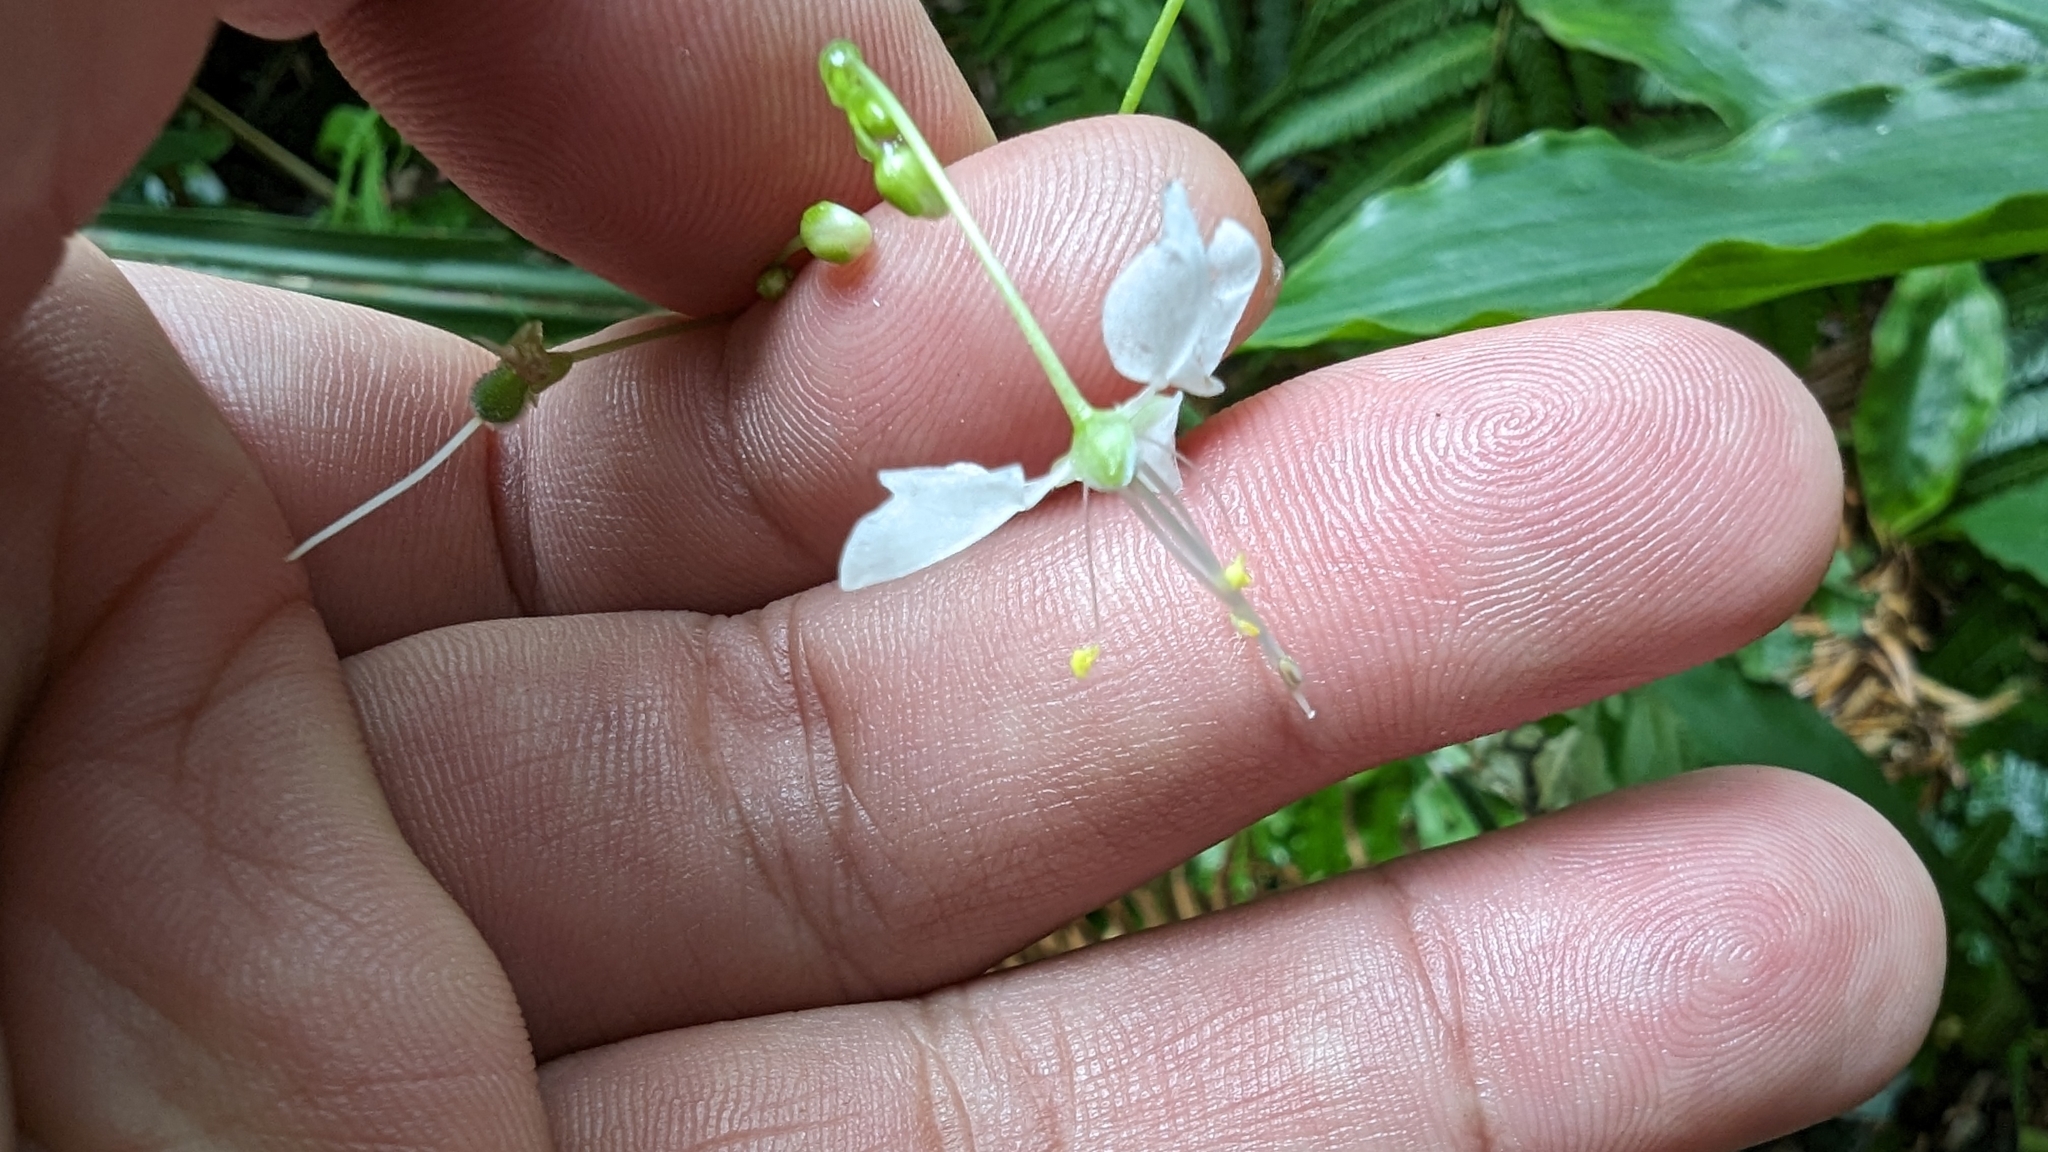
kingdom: Plantae
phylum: Tracheophyta
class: Liliopsida
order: Commelinales
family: Commelinaceae
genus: Rhopalephora
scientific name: Rhopalephora scaberrima
